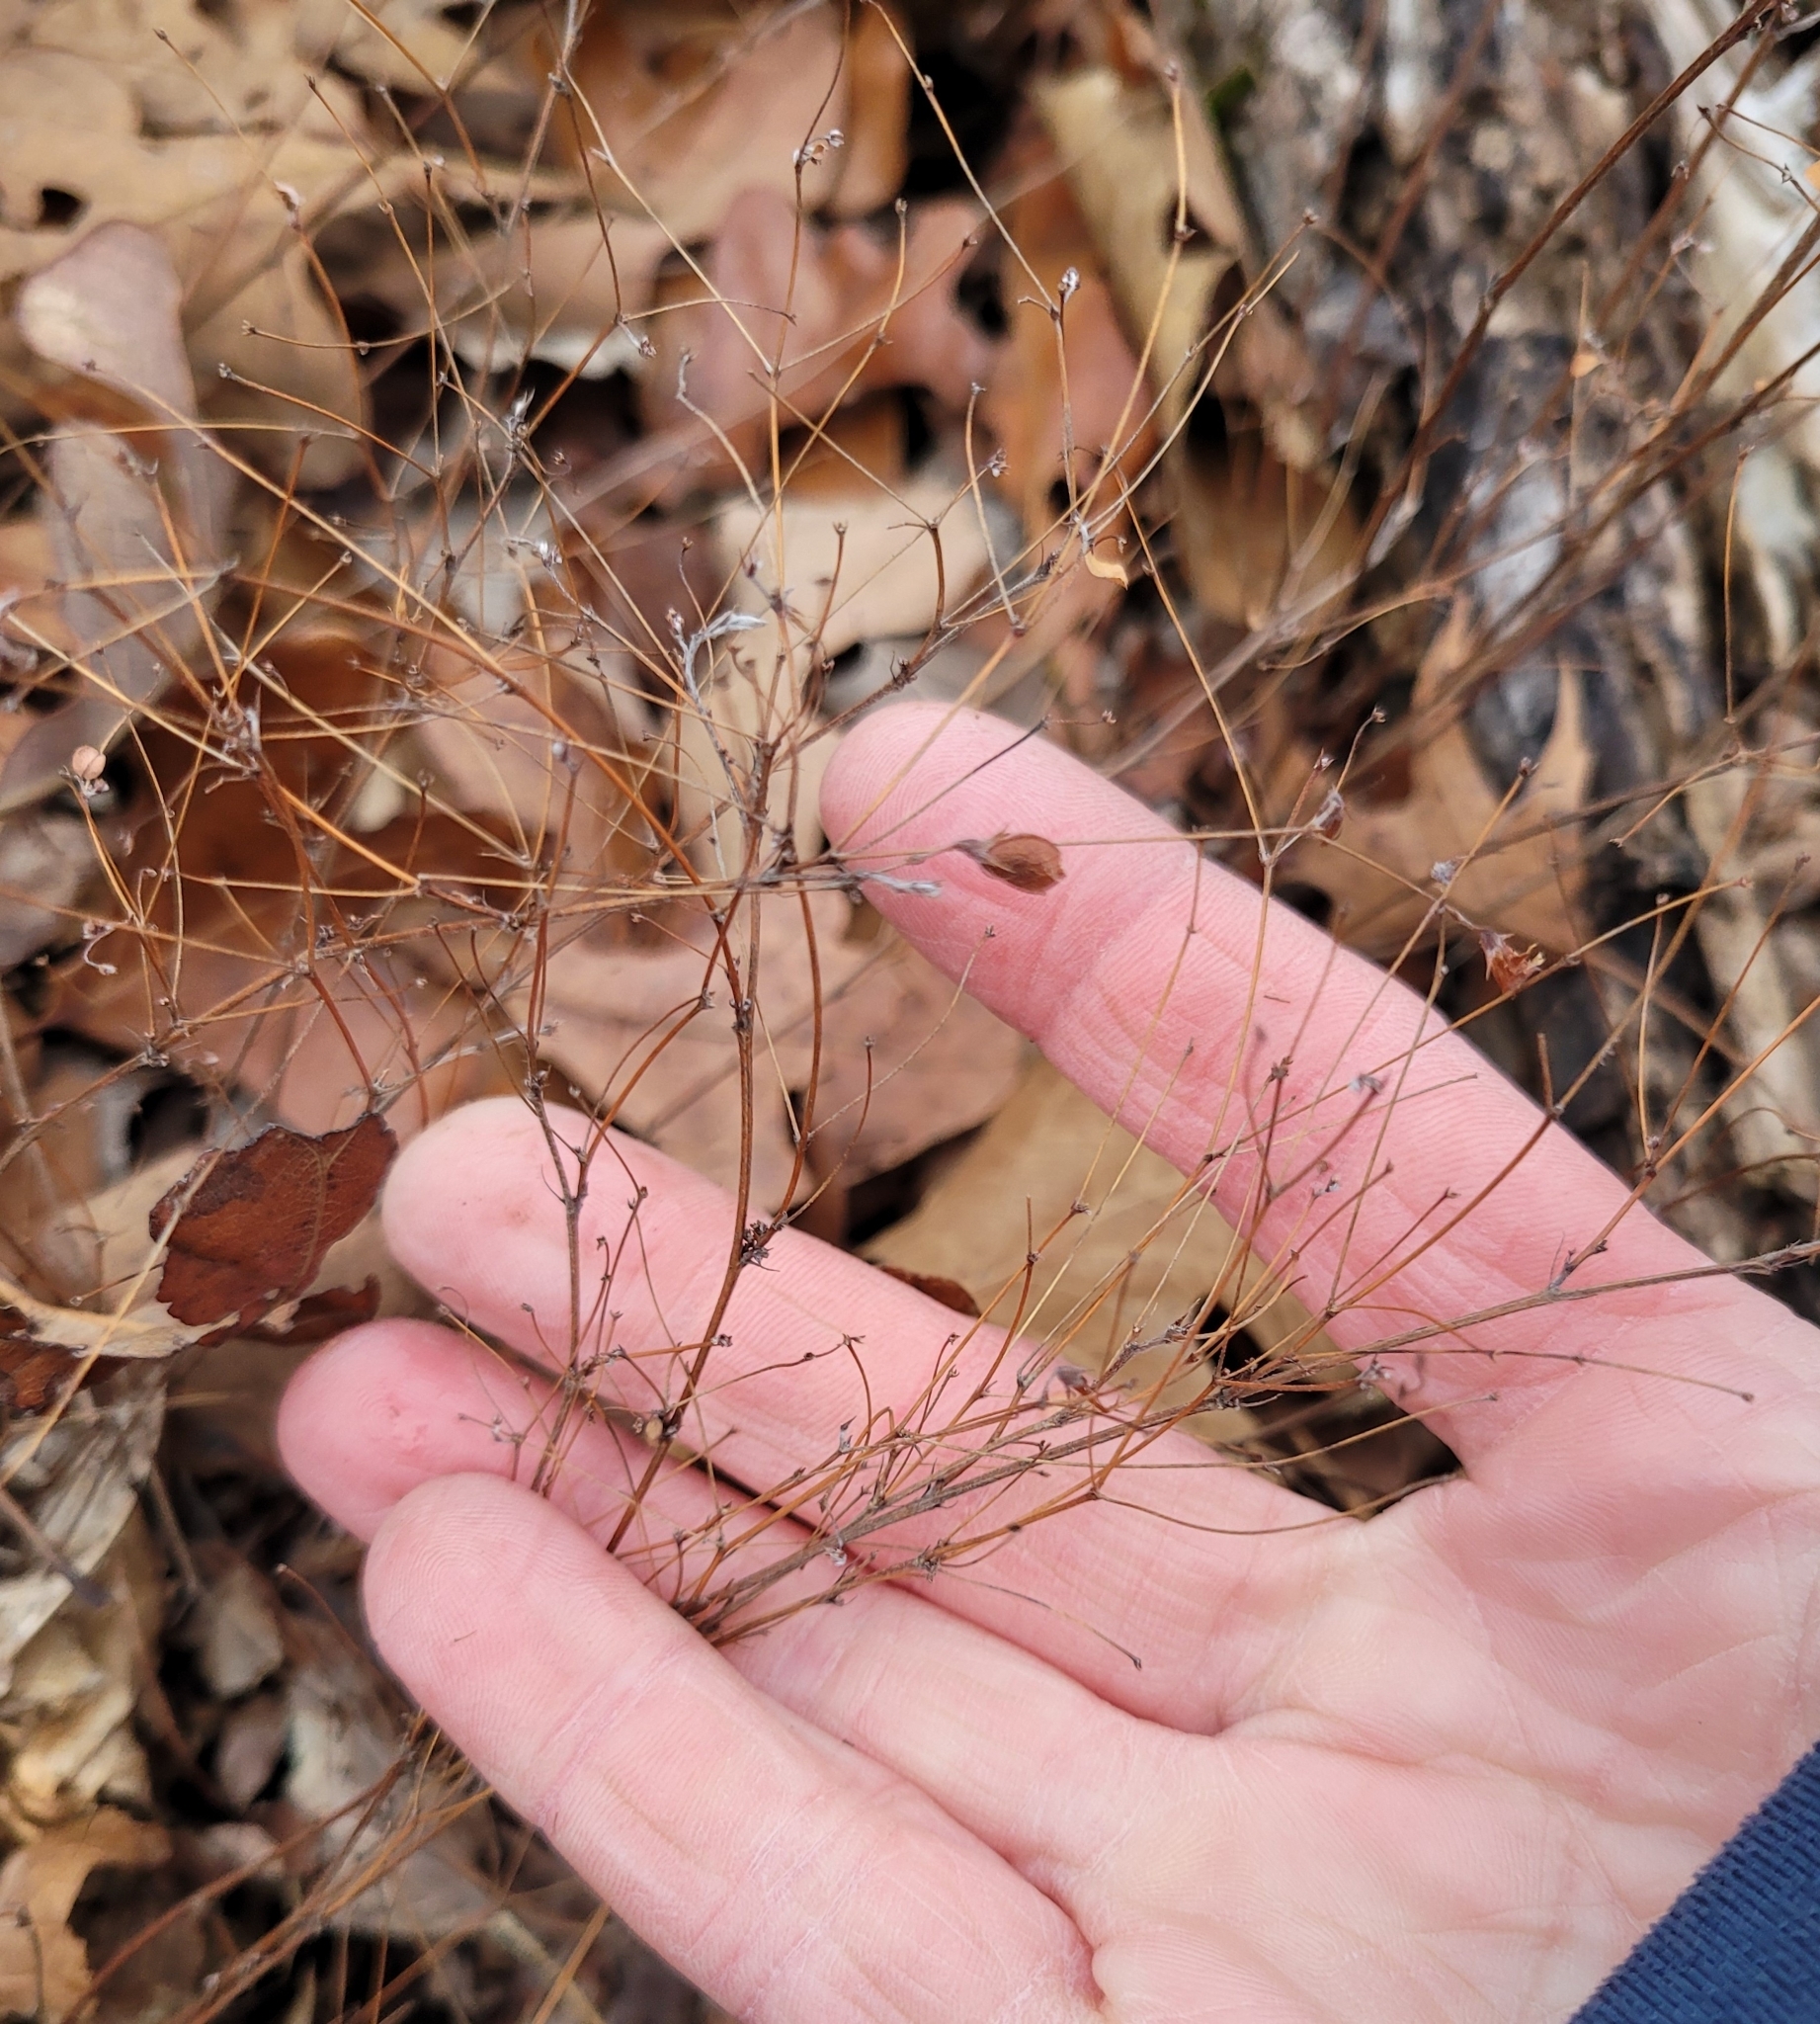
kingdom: Plantae
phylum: Tracheophyta
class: Magnoliopsida
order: Fabales
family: Fabaceae
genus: Lespedeza
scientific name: Lespedeza
